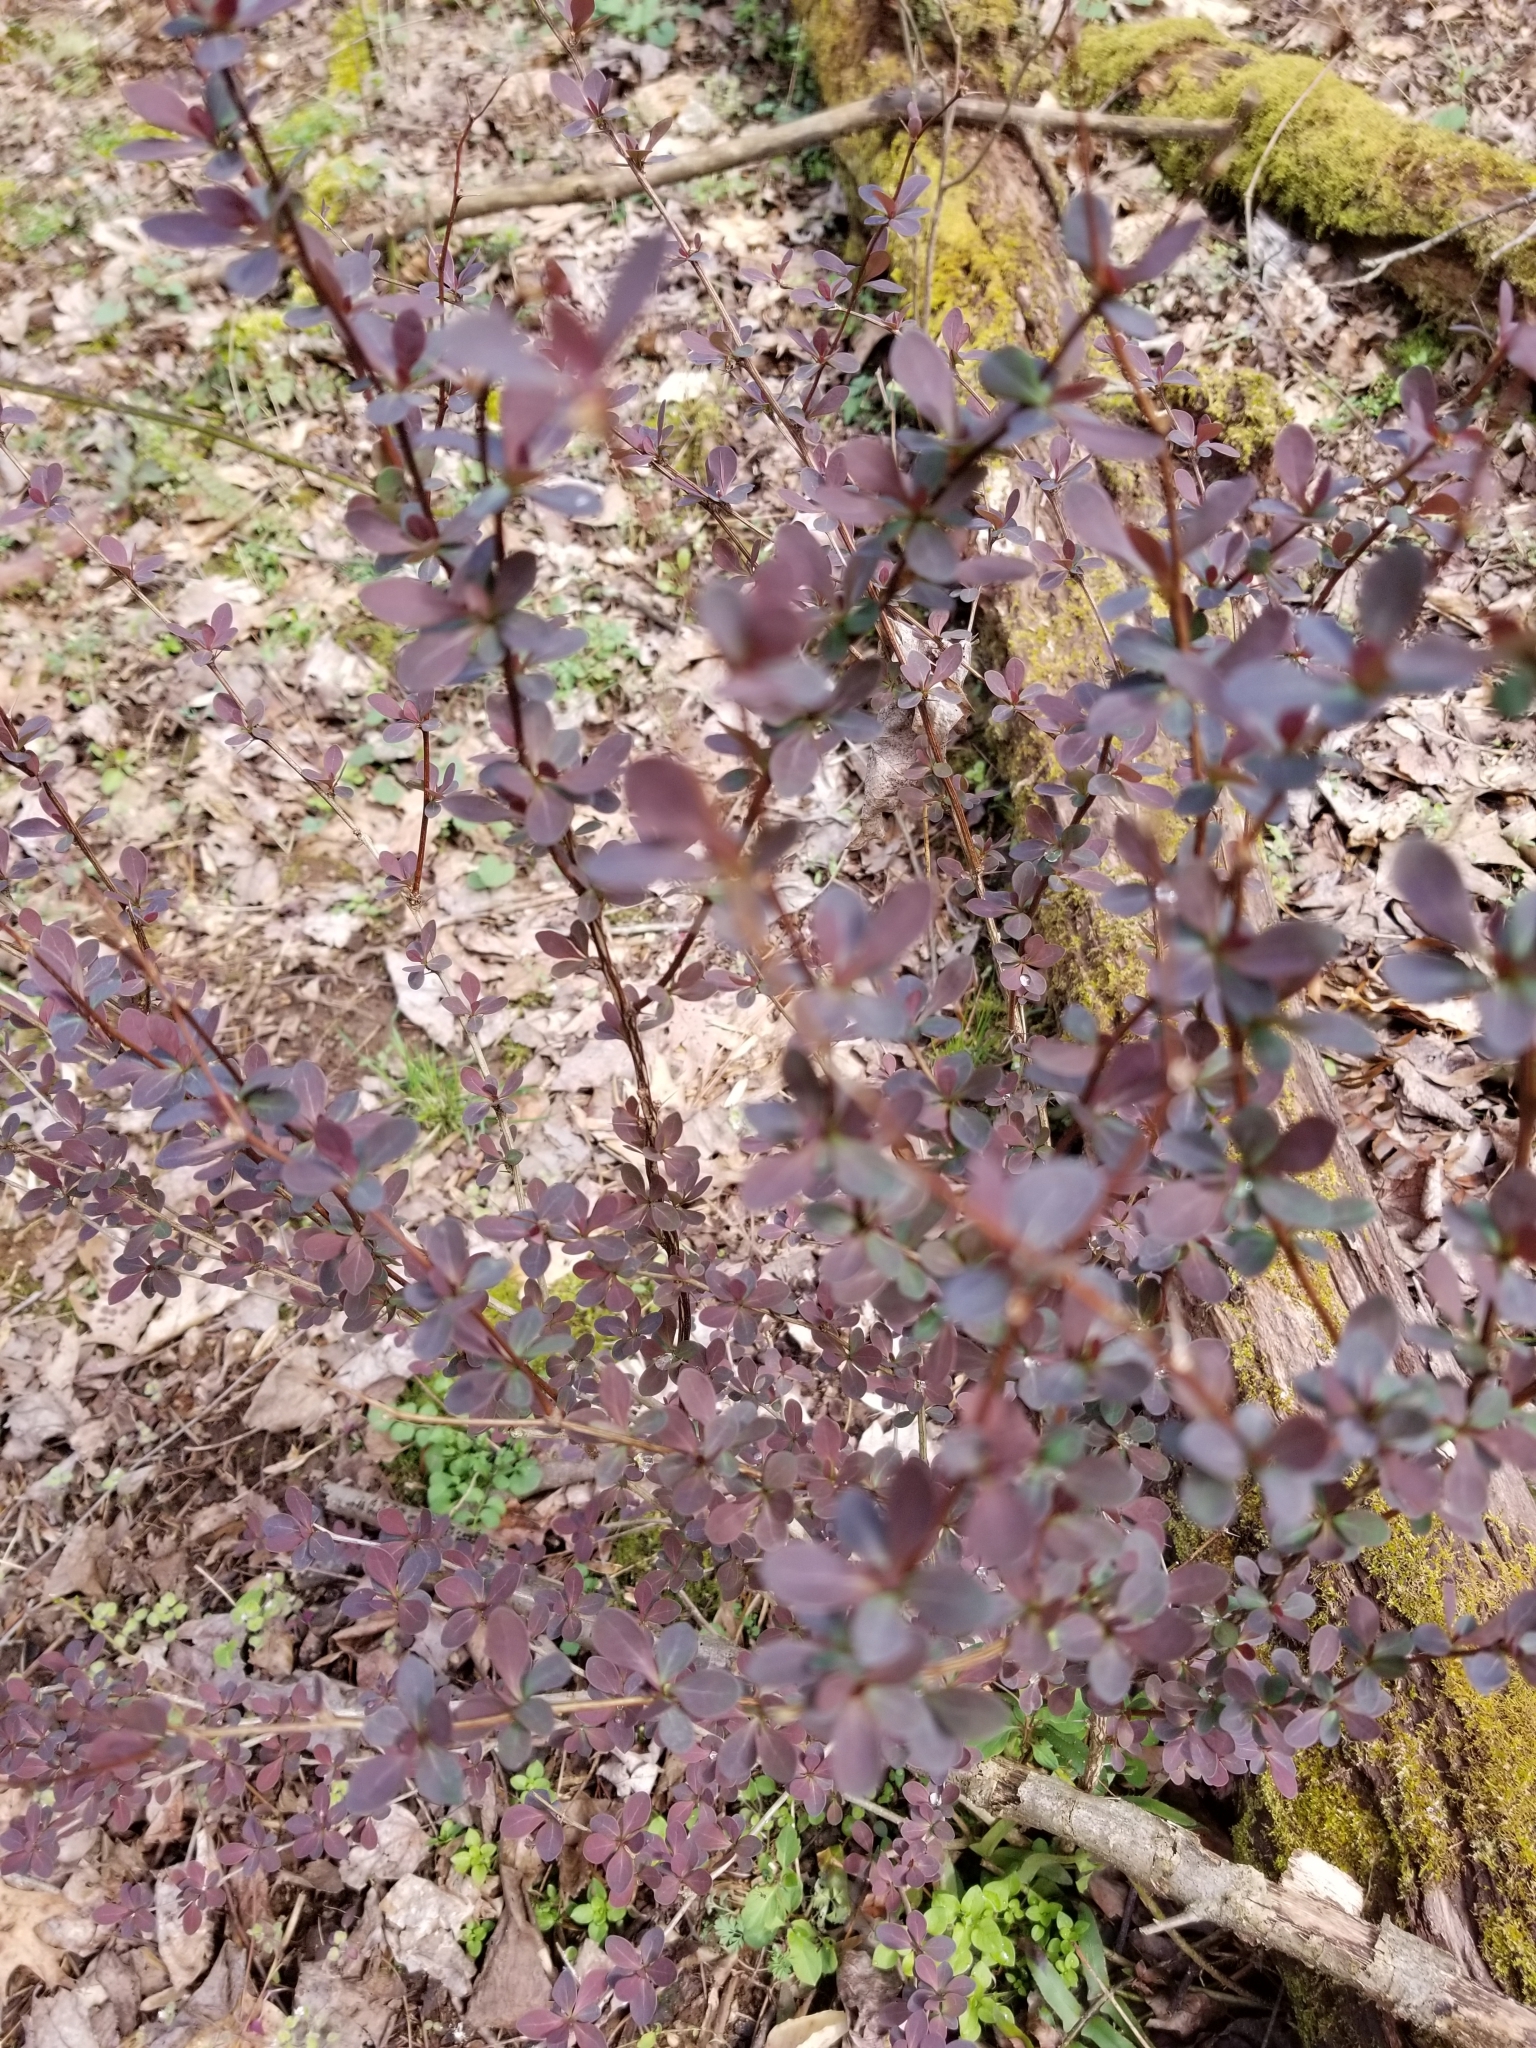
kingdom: Plantae
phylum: Tracheophyta
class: Magnoliopsida
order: Ranunculales
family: Berberidaceae
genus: Berberis
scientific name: Berberis thunbergii
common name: Japanese barberry
